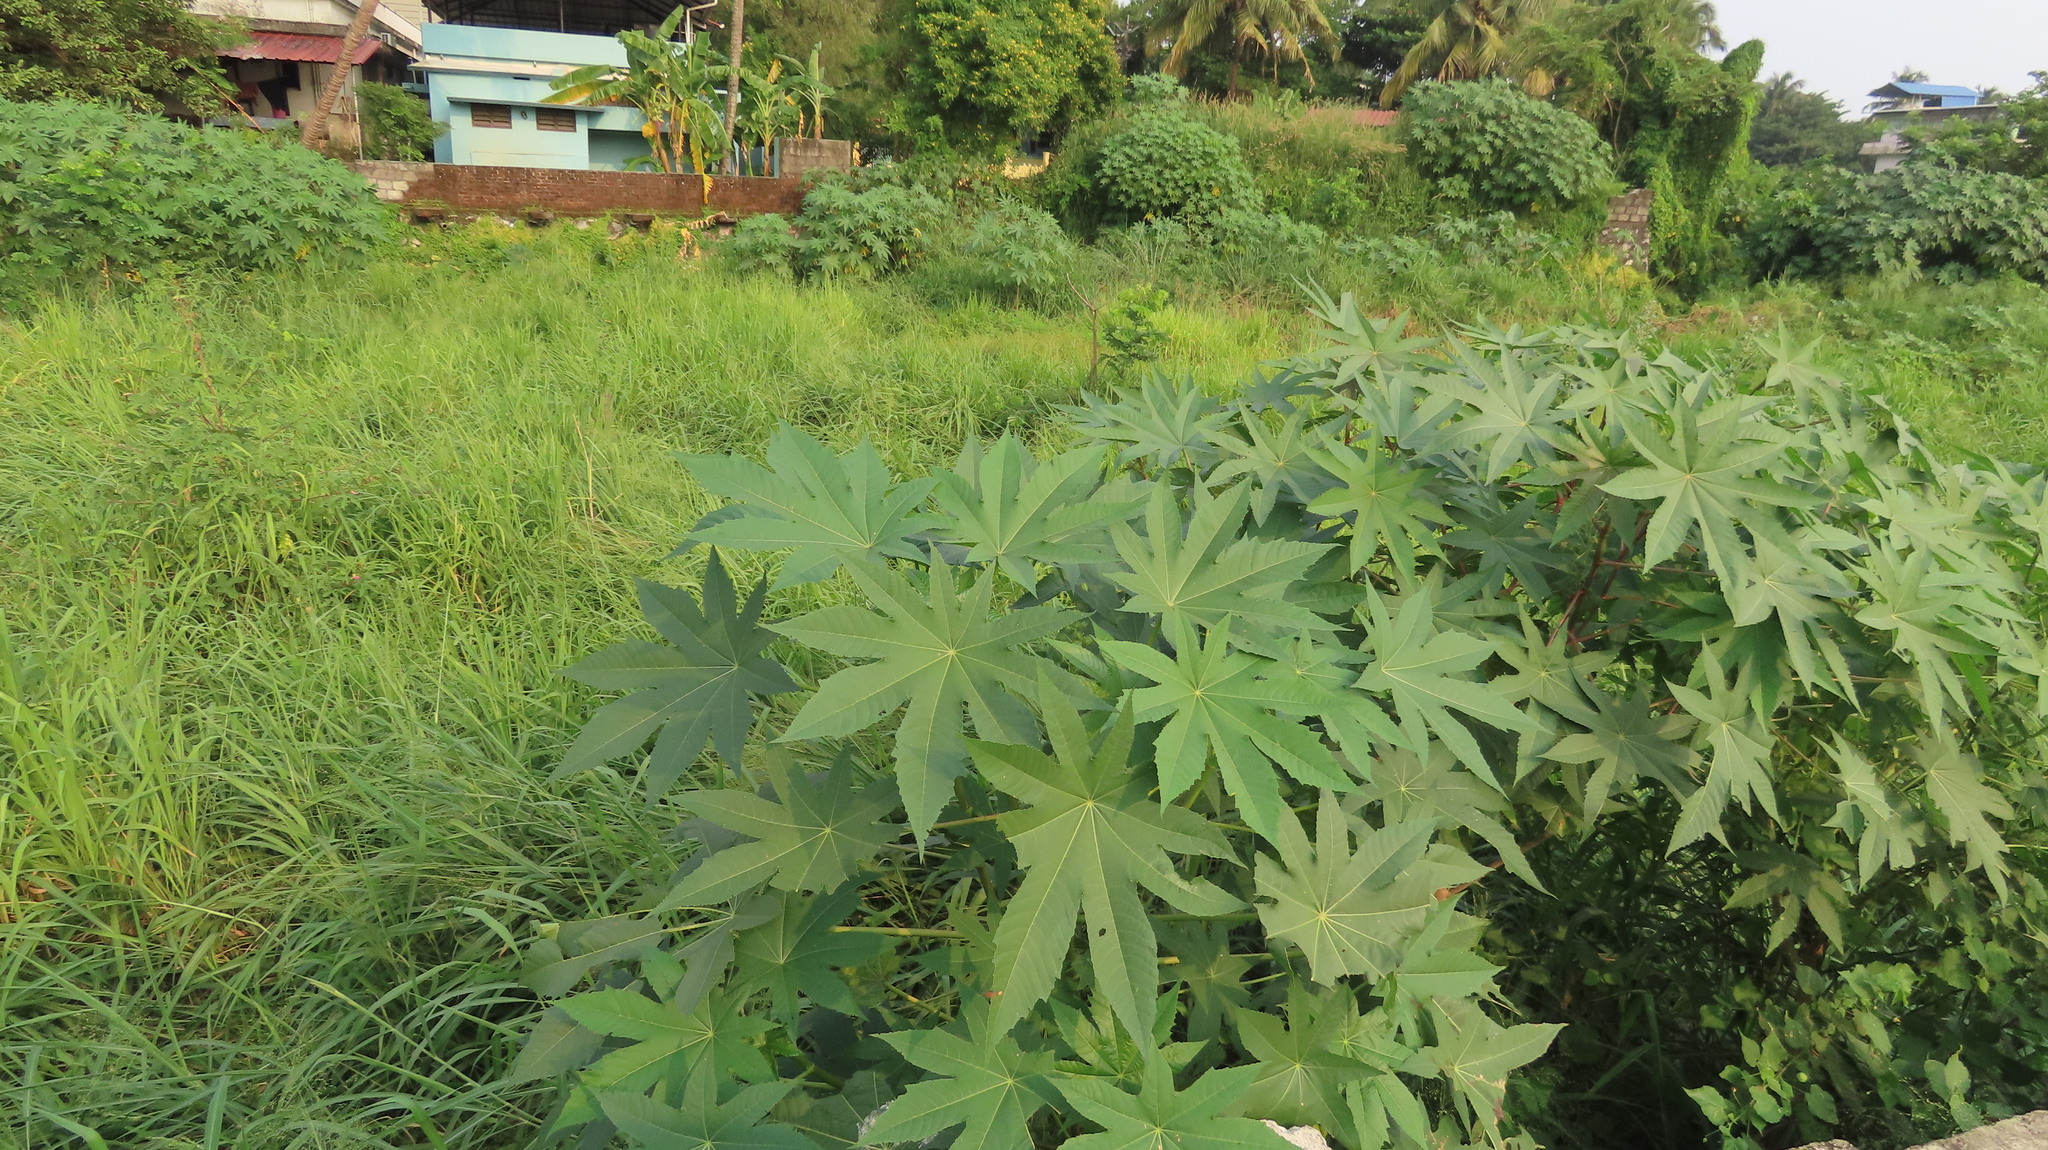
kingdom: Plantae
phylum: Tracheophyta
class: Magnoliopsida
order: Malpighiales
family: Euphorbiaceae
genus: Ricinus
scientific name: Ricinus communis
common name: Castor-oil-plant
